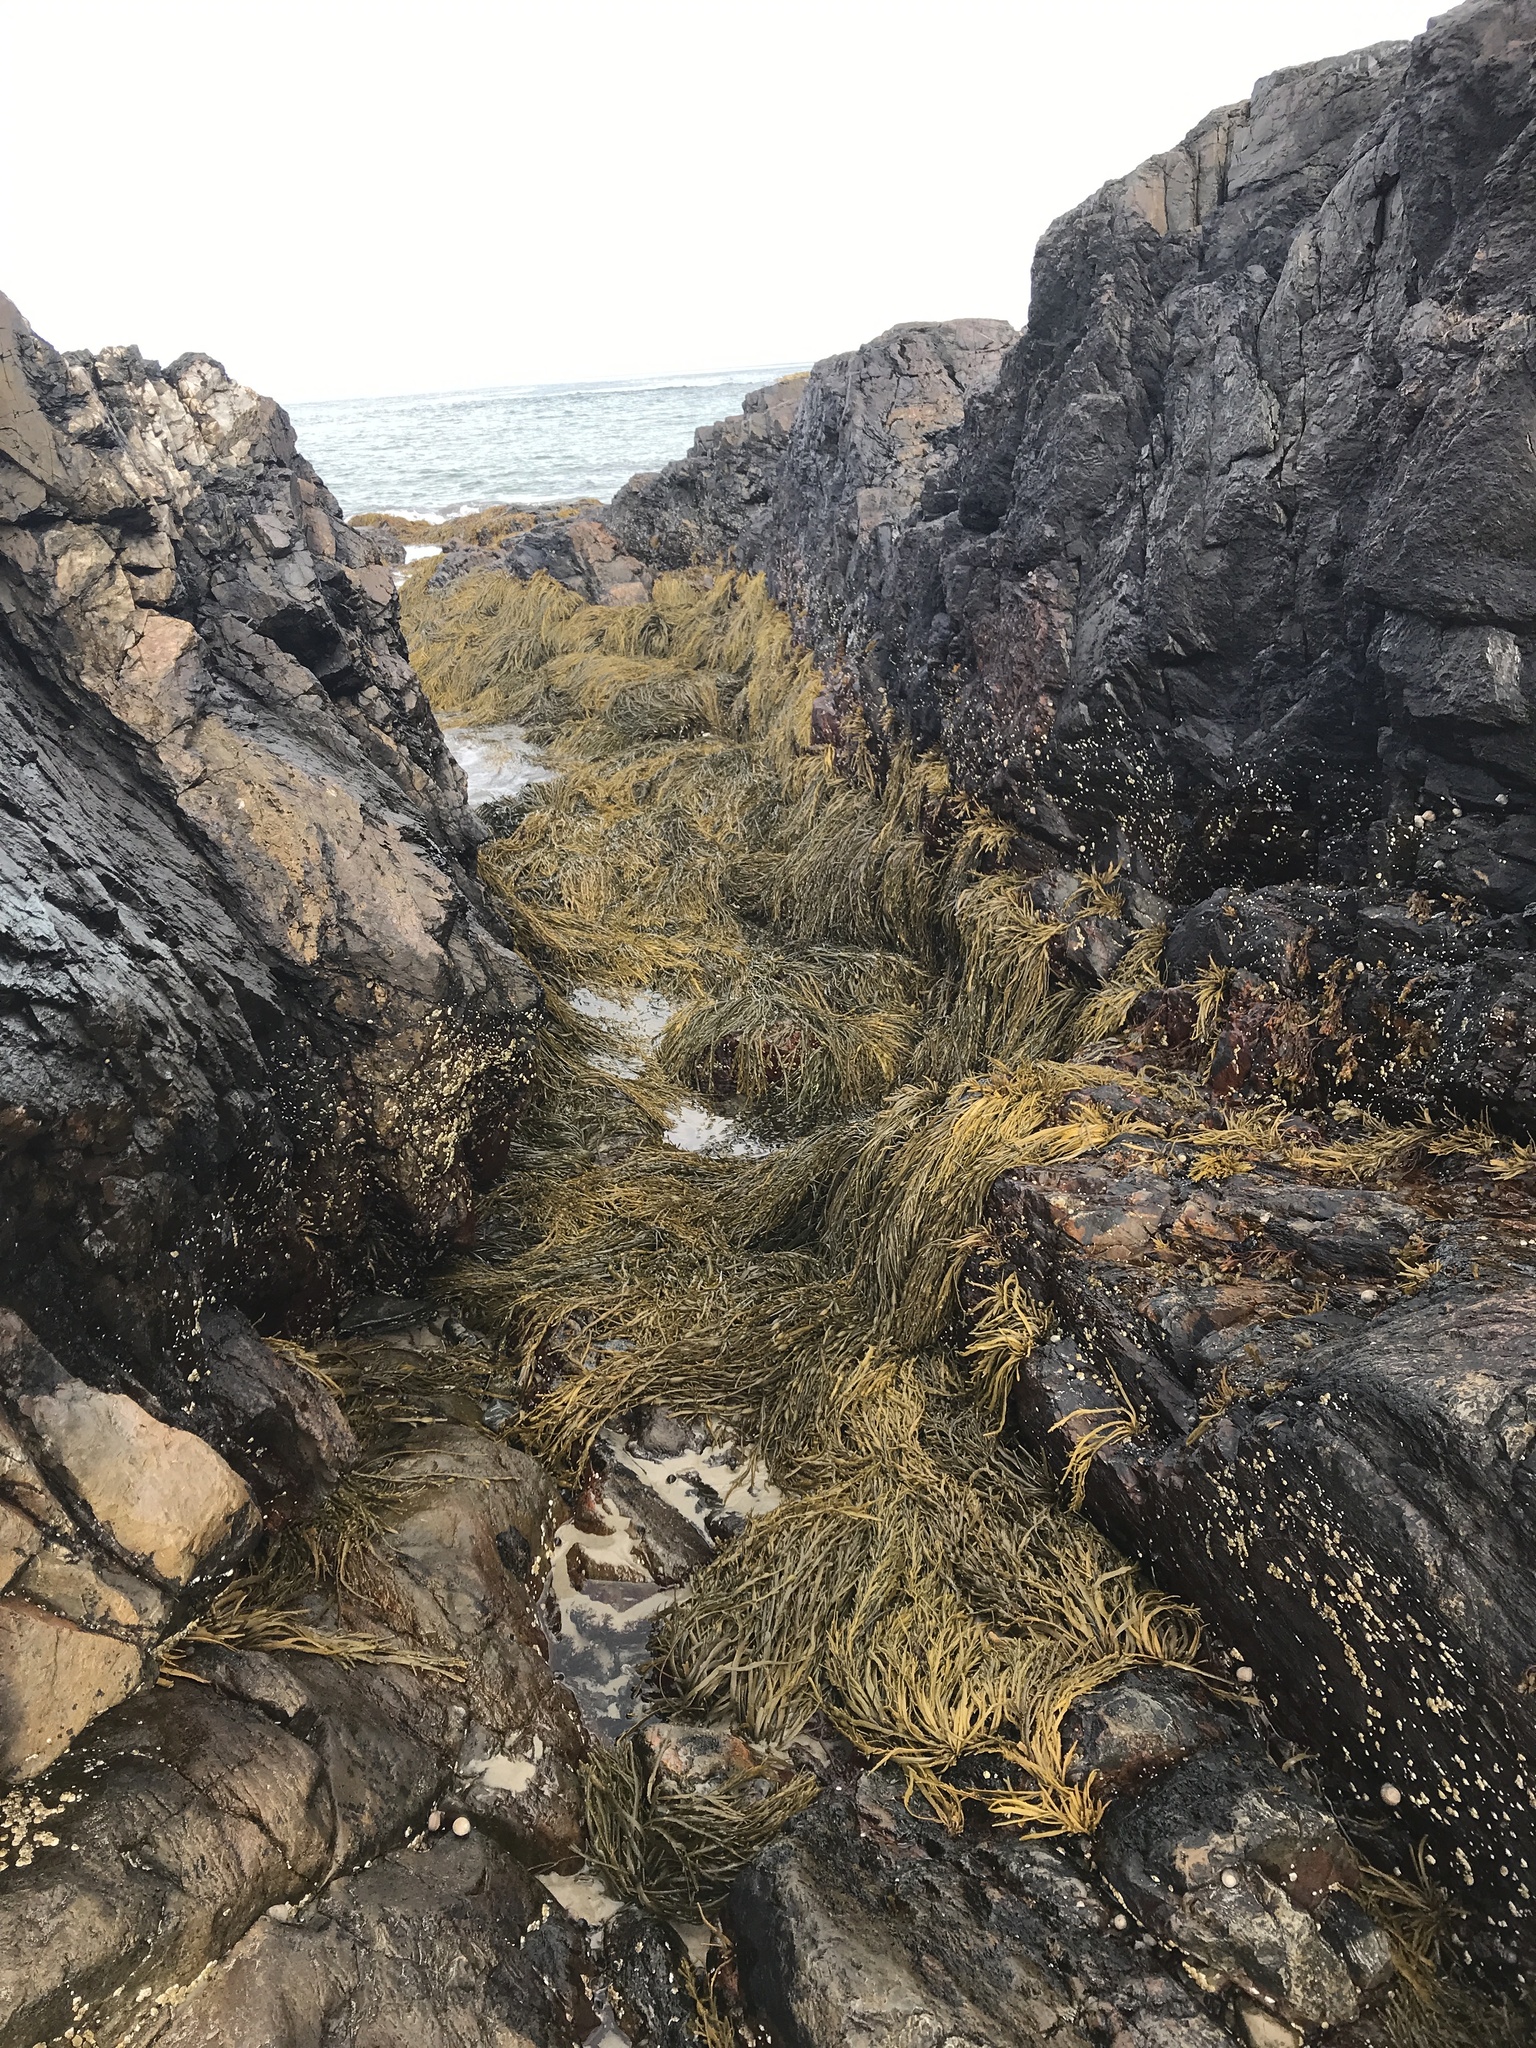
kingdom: Chromista
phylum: Ochrophyta
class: Phaeophyceae
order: Fucales
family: Fucaceae
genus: Ascophyllum
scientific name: Ascophyllum nodosum
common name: Knotted wrack
